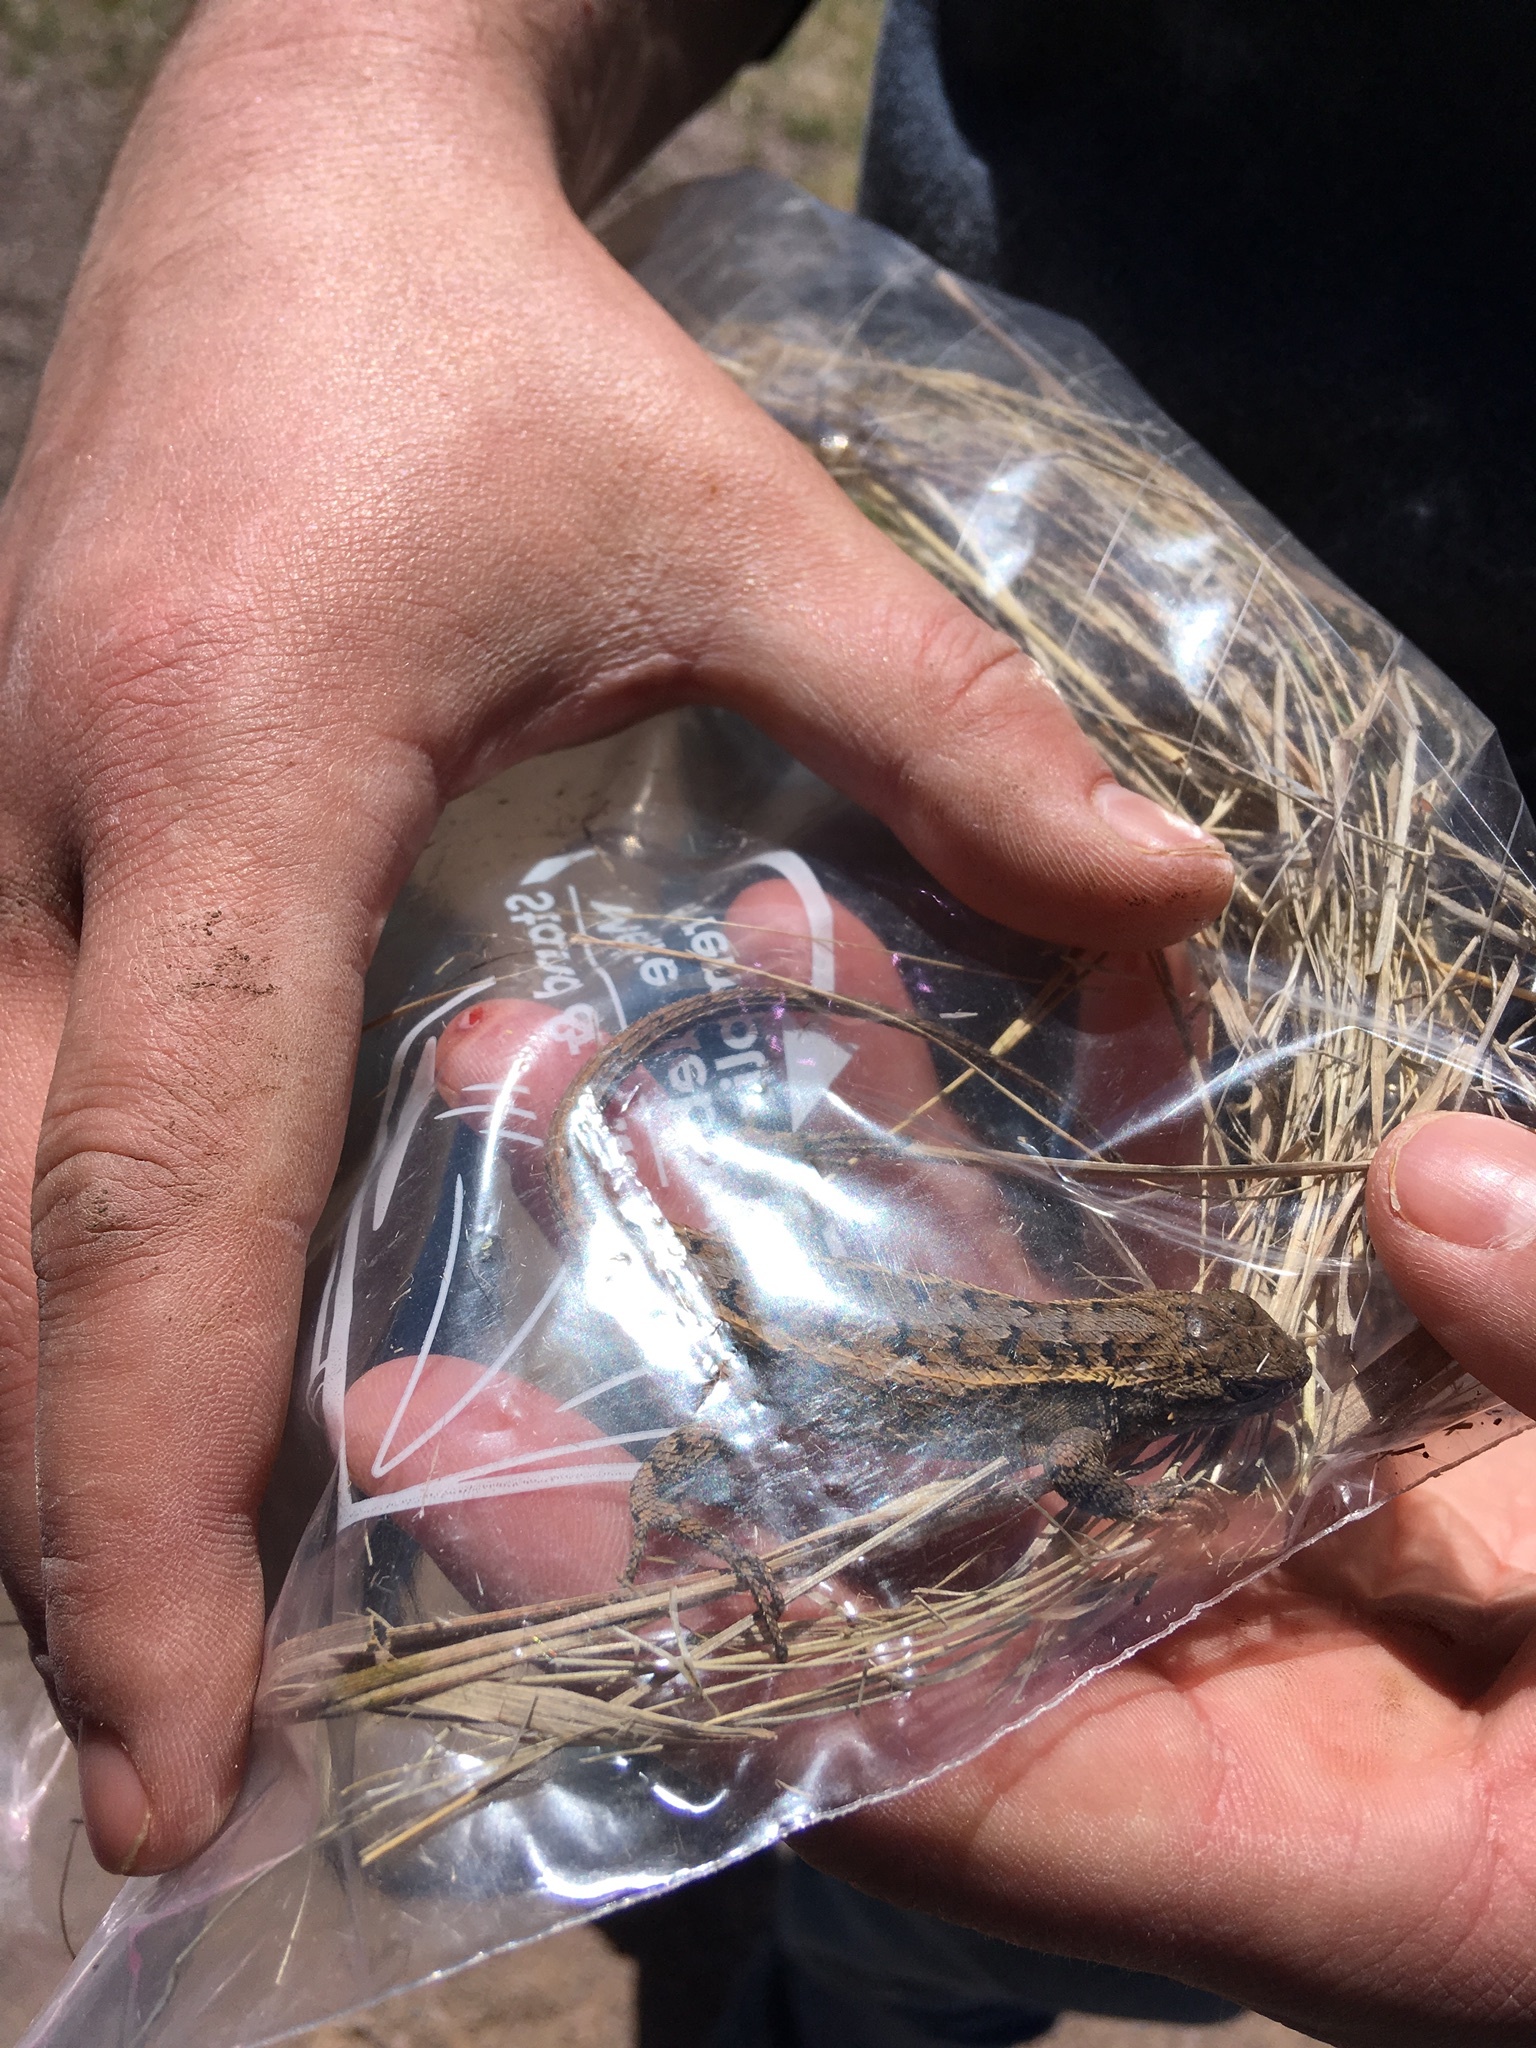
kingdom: Animalia
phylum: Chordata
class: Squamata
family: Phrynosomatidae
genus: Sceloporus
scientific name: Sceloporus consobrinus
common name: Southern prairie lizard
